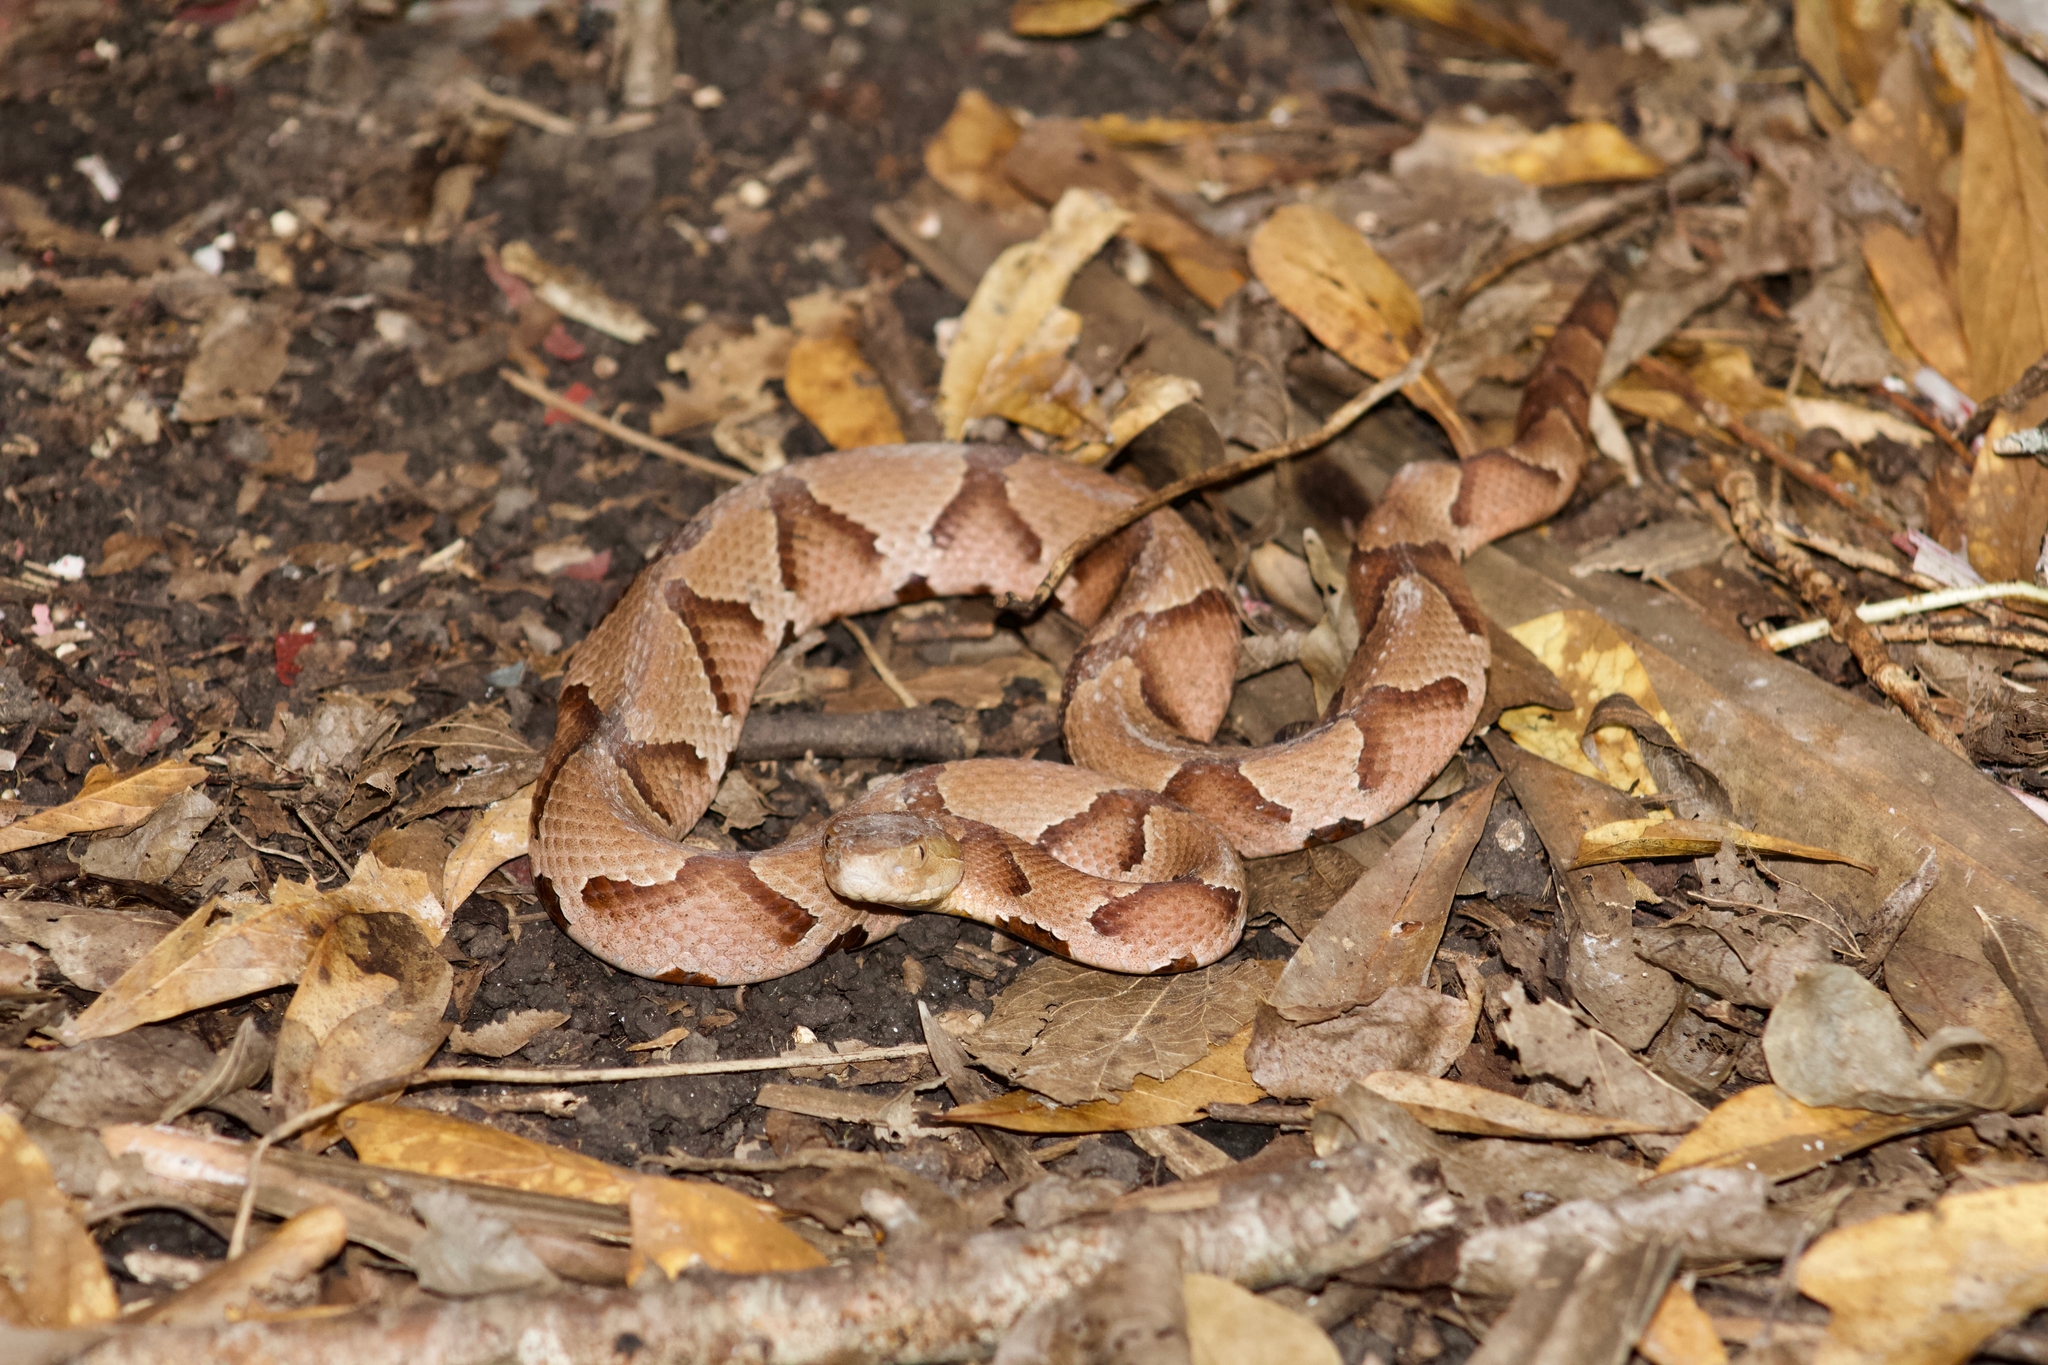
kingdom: Animalia
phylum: Chordata
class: Squamata
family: Viperidae
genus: Agkistrodon
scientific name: Agkistrodon contortrix
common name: Northern copperhead
